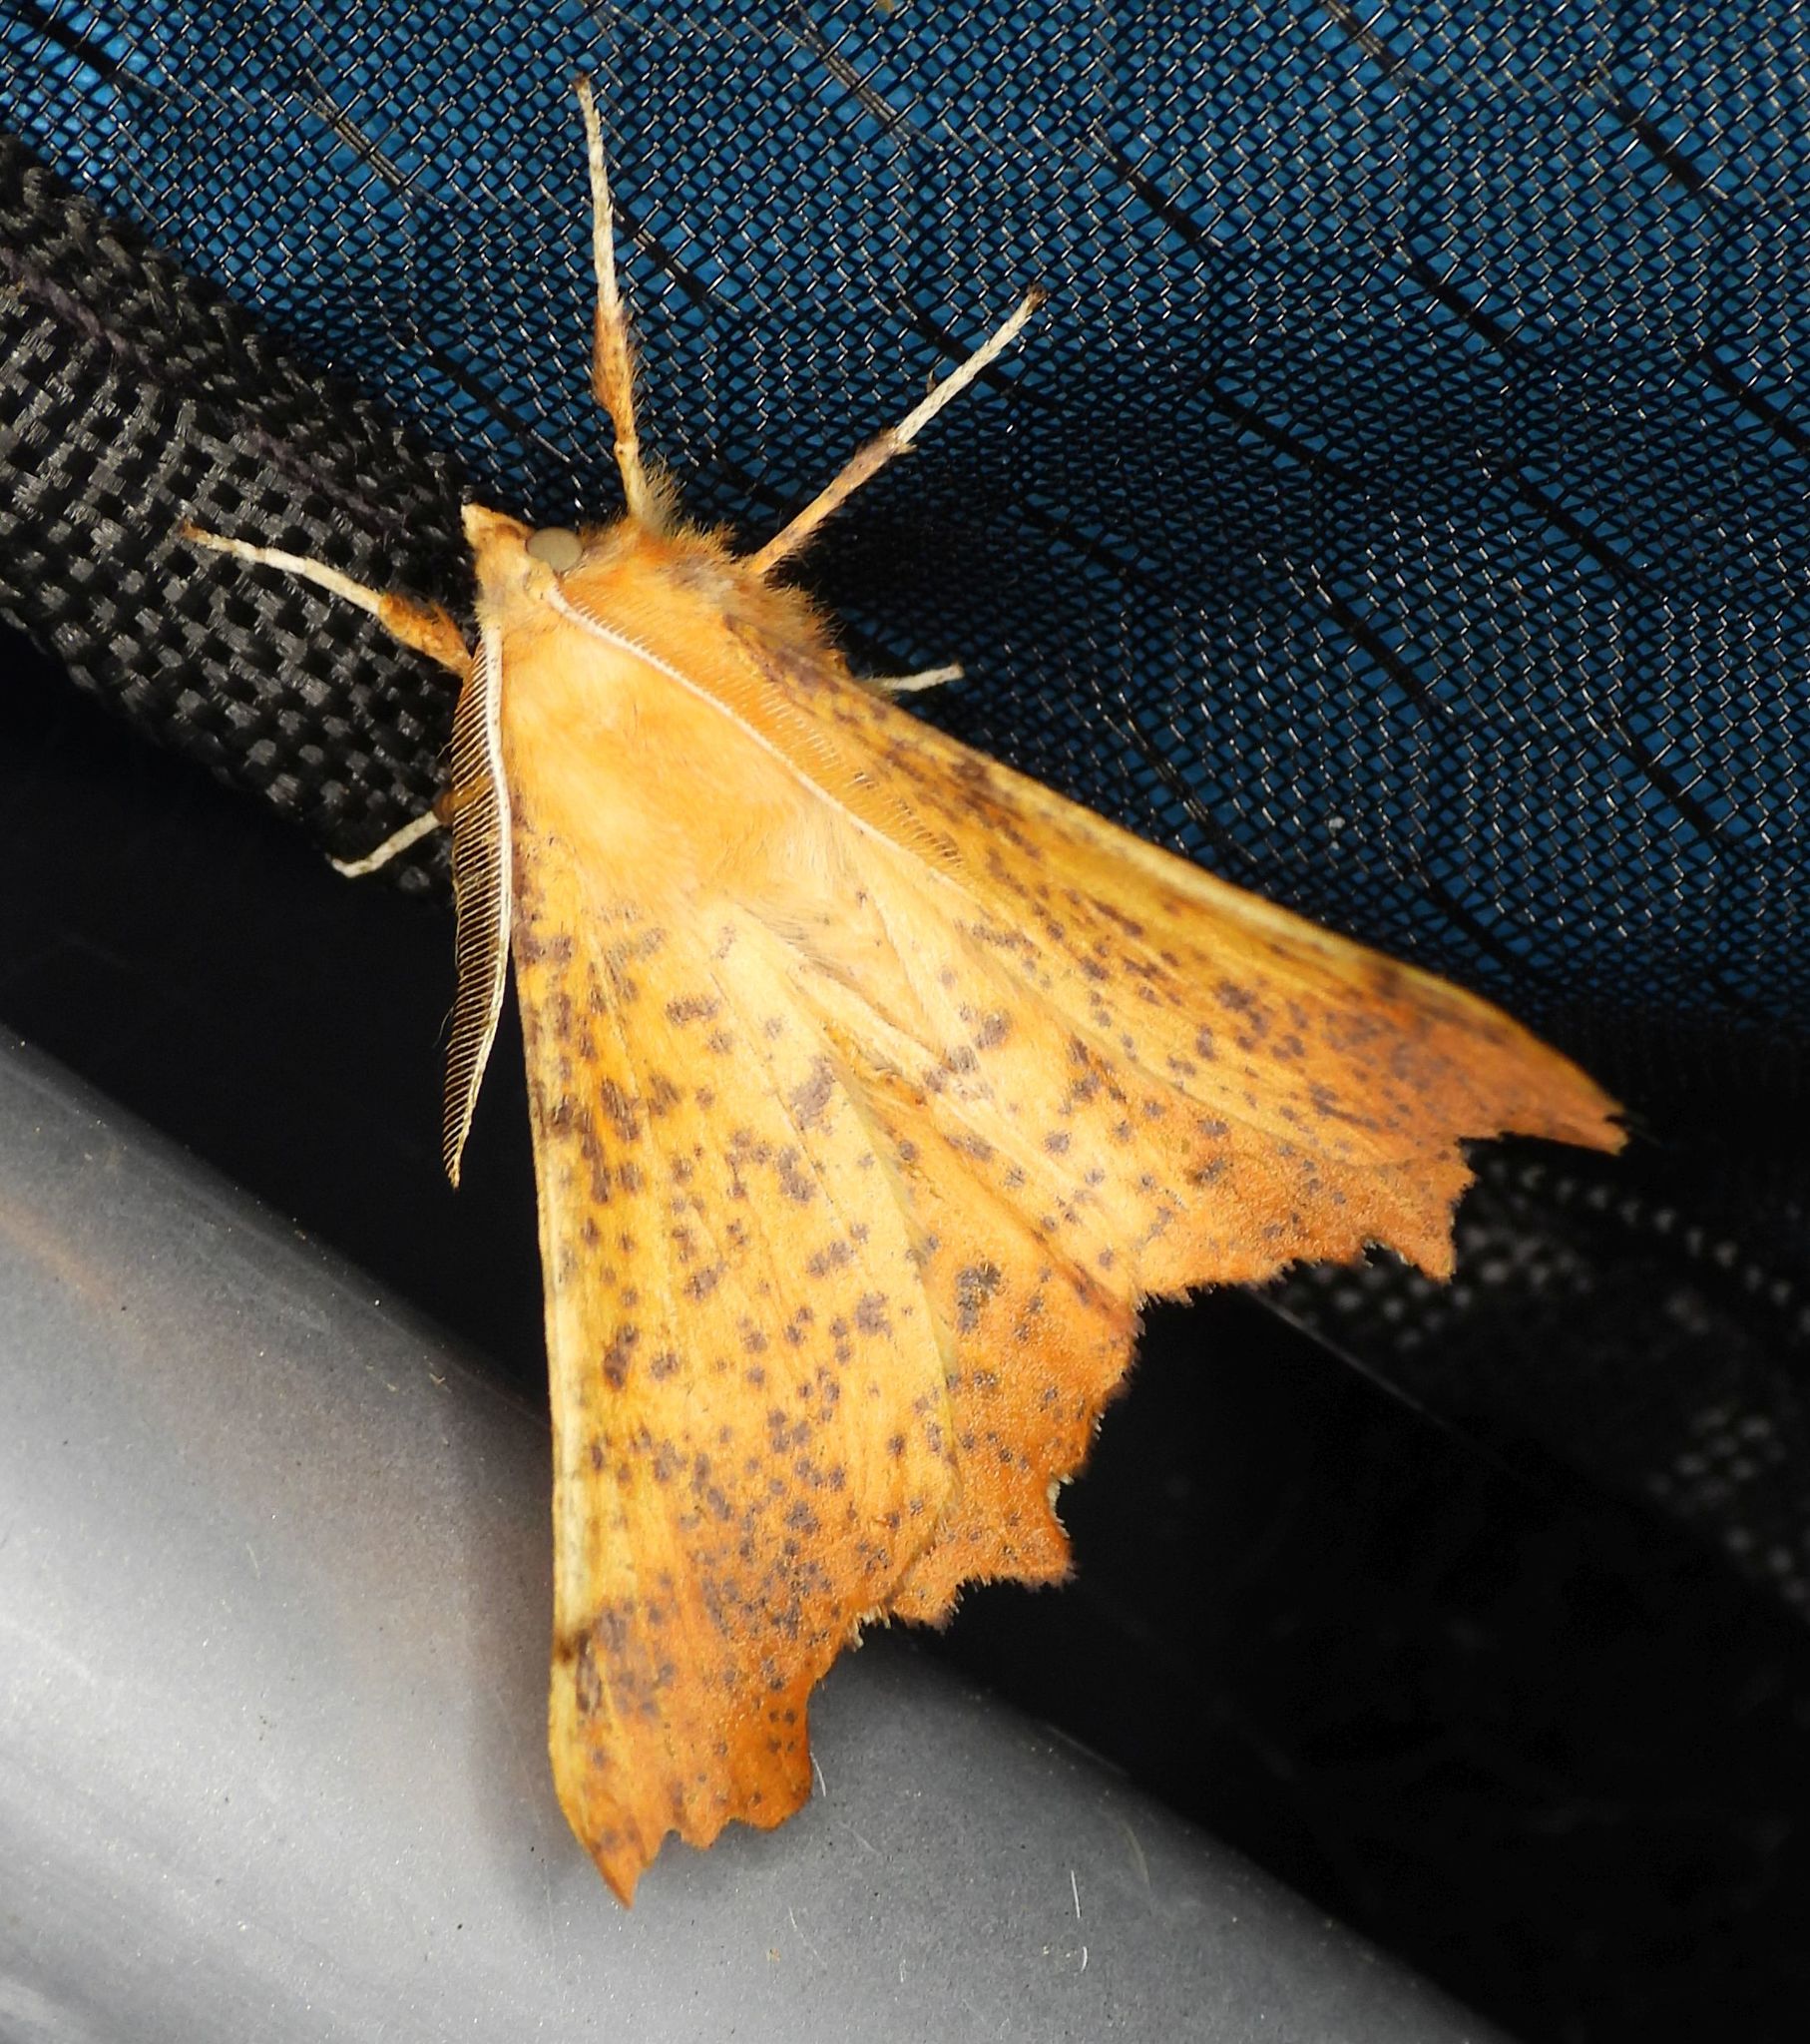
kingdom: Animalia
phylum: Arthropoda
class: Insecta
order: Lepidoptera
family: Geometridae
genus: Ennomos
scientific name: Ennomos magnaria
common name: Maple spanworm
